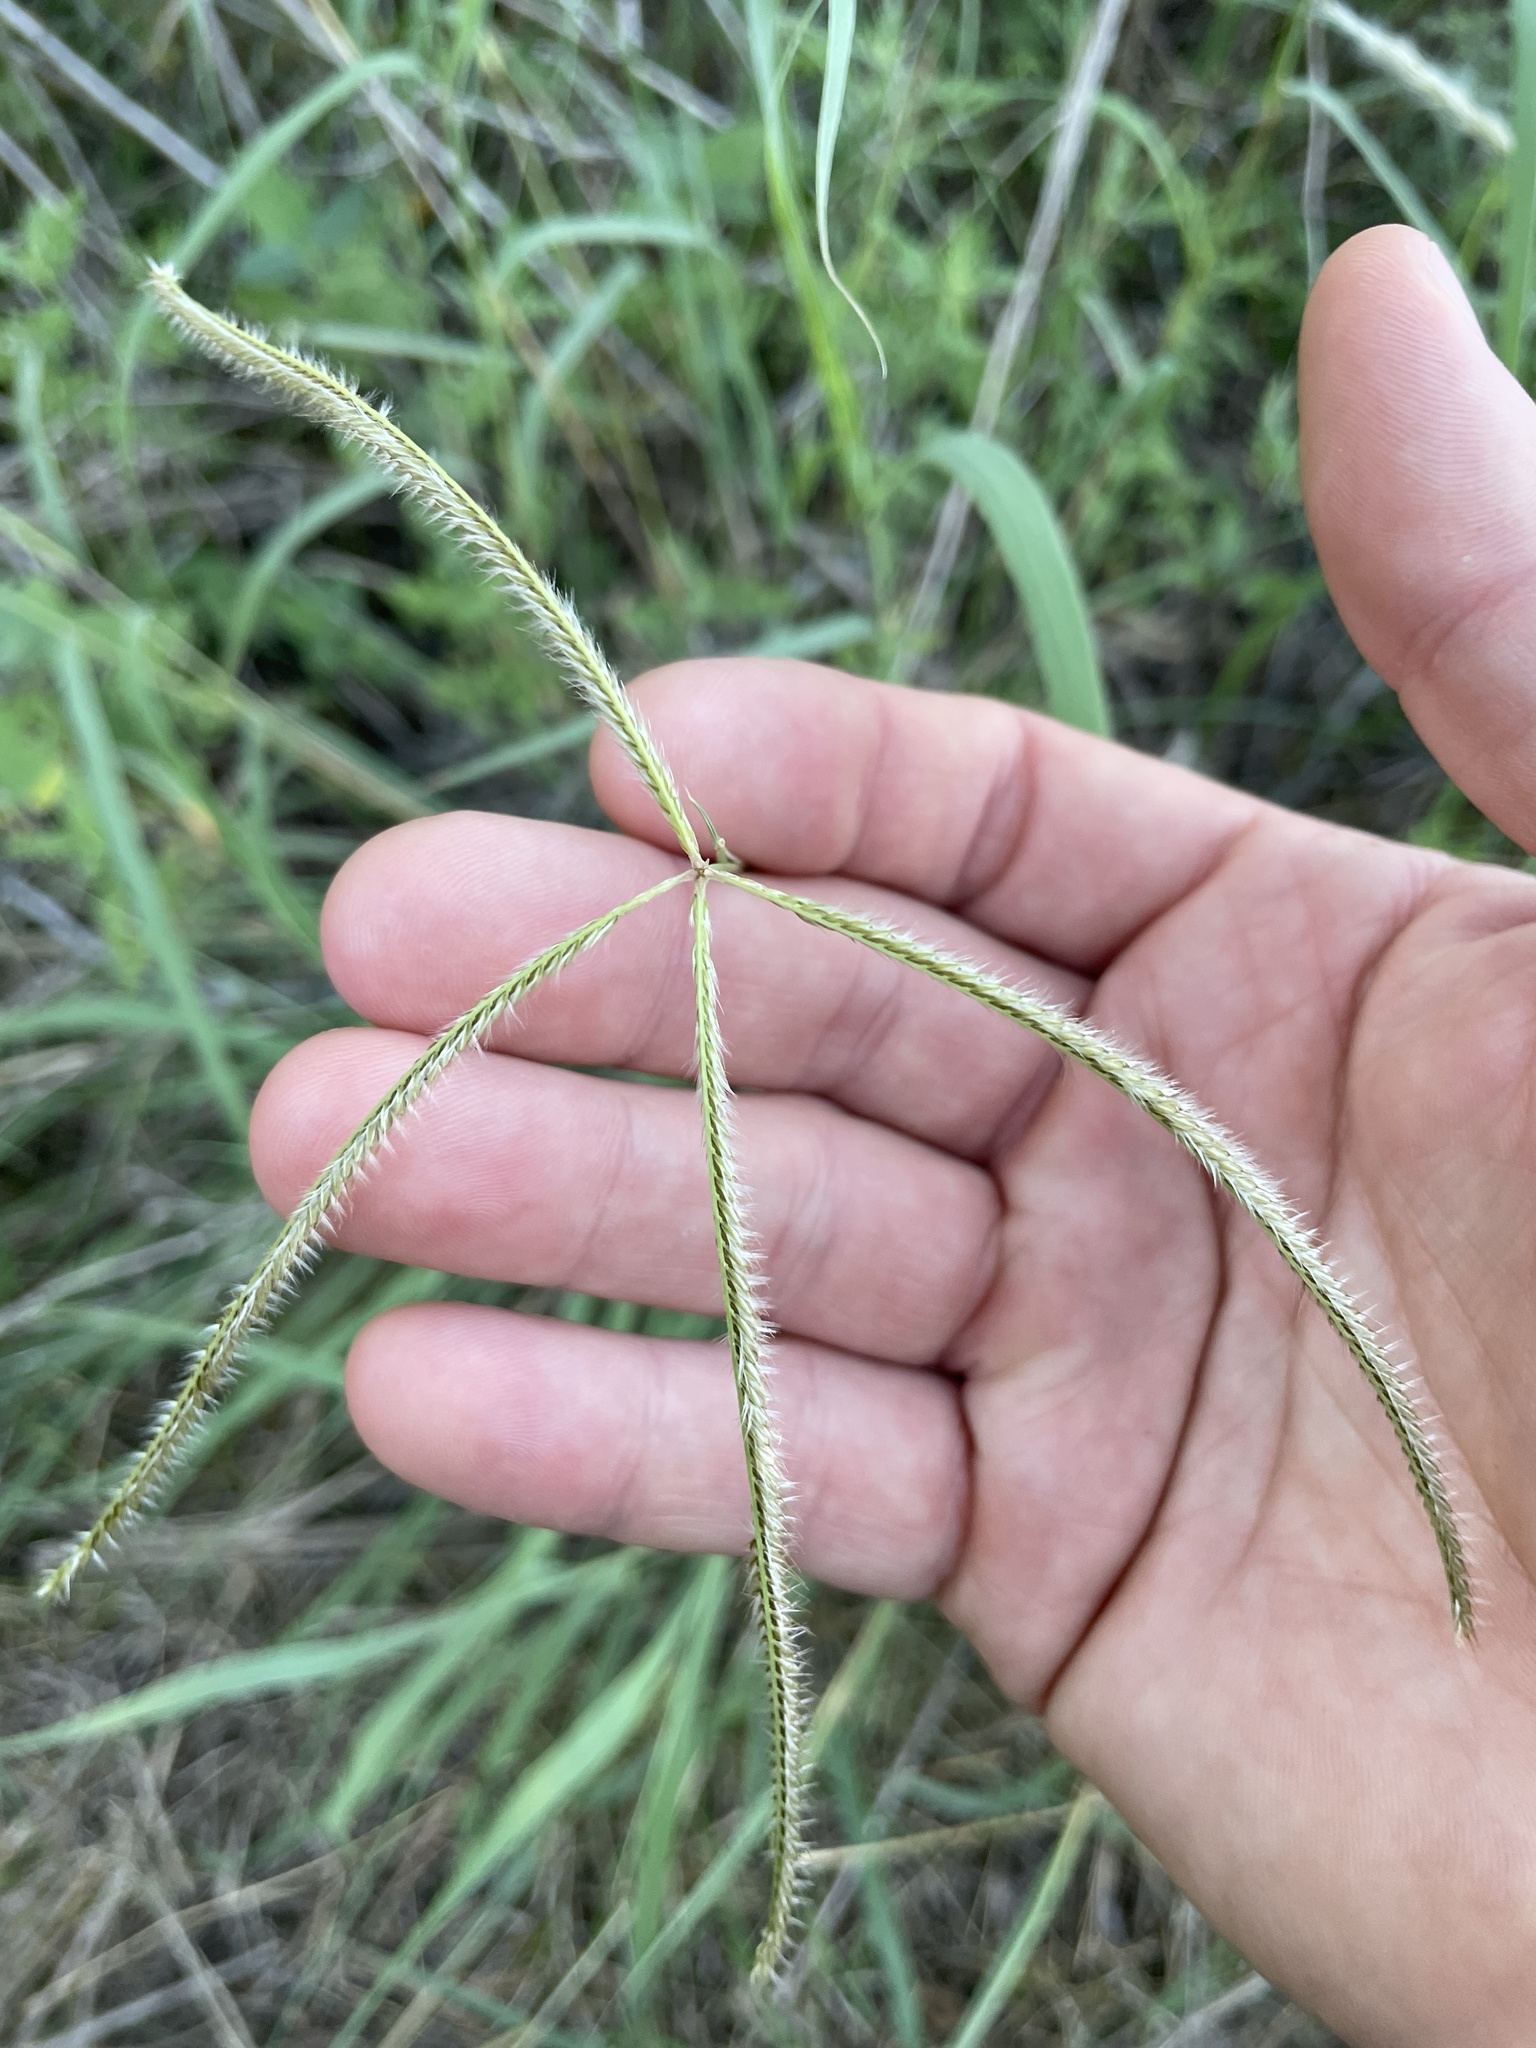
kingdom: Plantae
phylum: Tracheophyta
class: Liliopsida
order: Poales
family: Poaceae
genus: Stapfochloa
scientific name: Stapfochloa canterae
